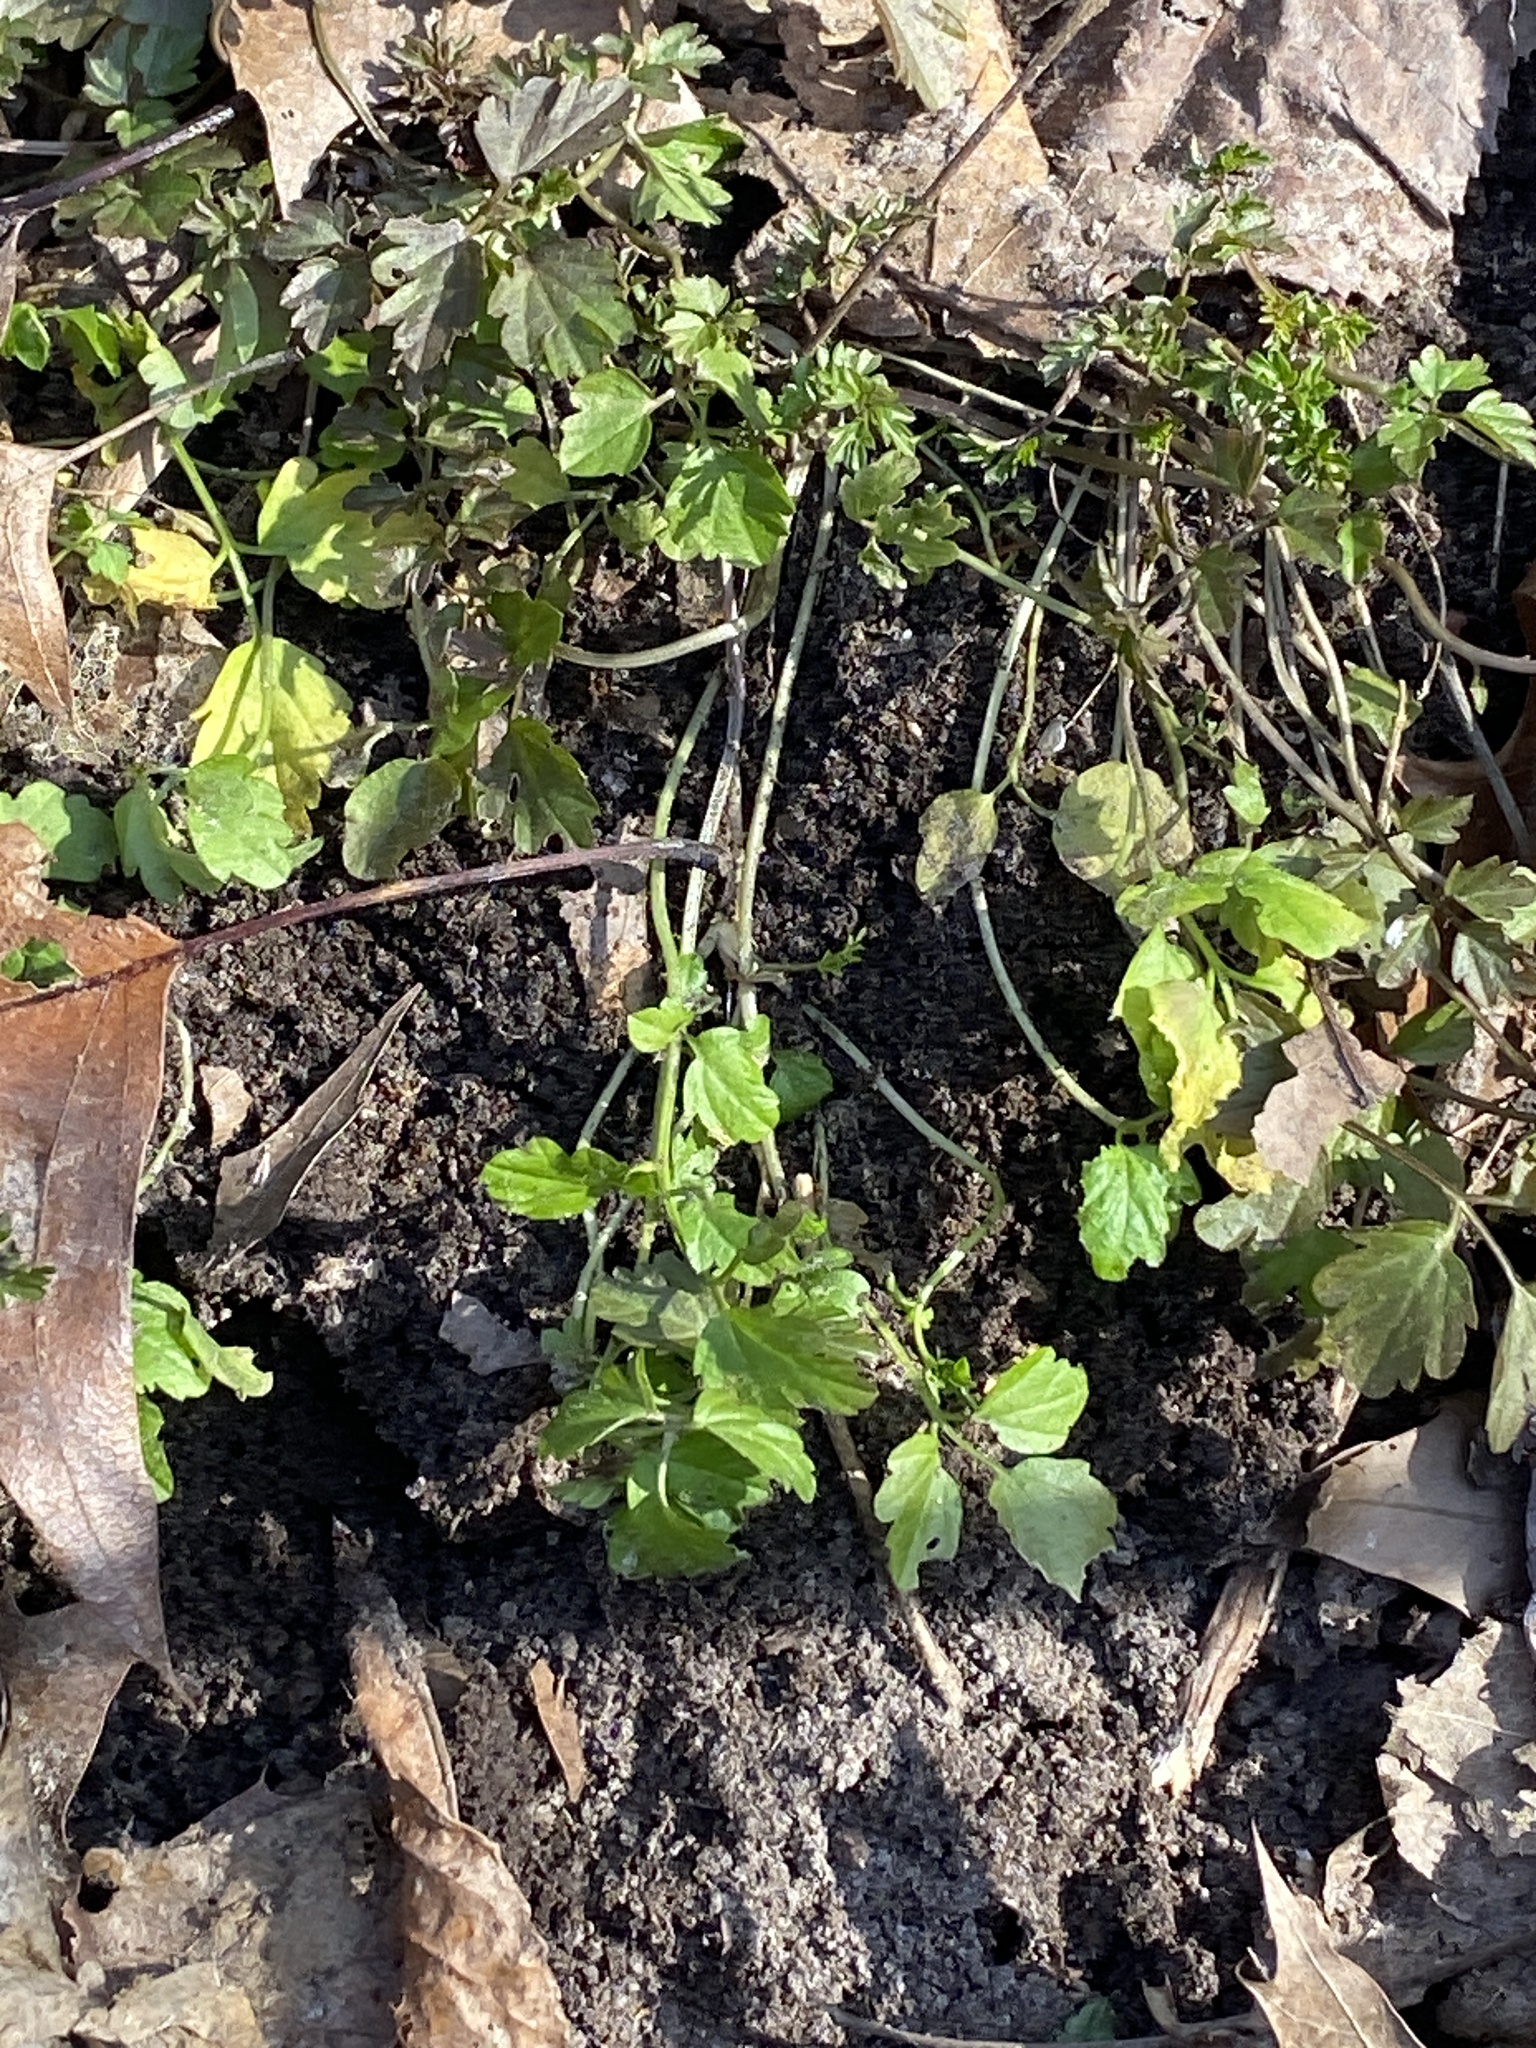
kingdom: Plantae
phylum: Tracheophyta
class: Magnoliopsida
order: Brassicales
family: Brassicaceae
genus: Cardamine
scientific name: Cardamine impatiens
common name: Narrow-leaved bitter-cress
